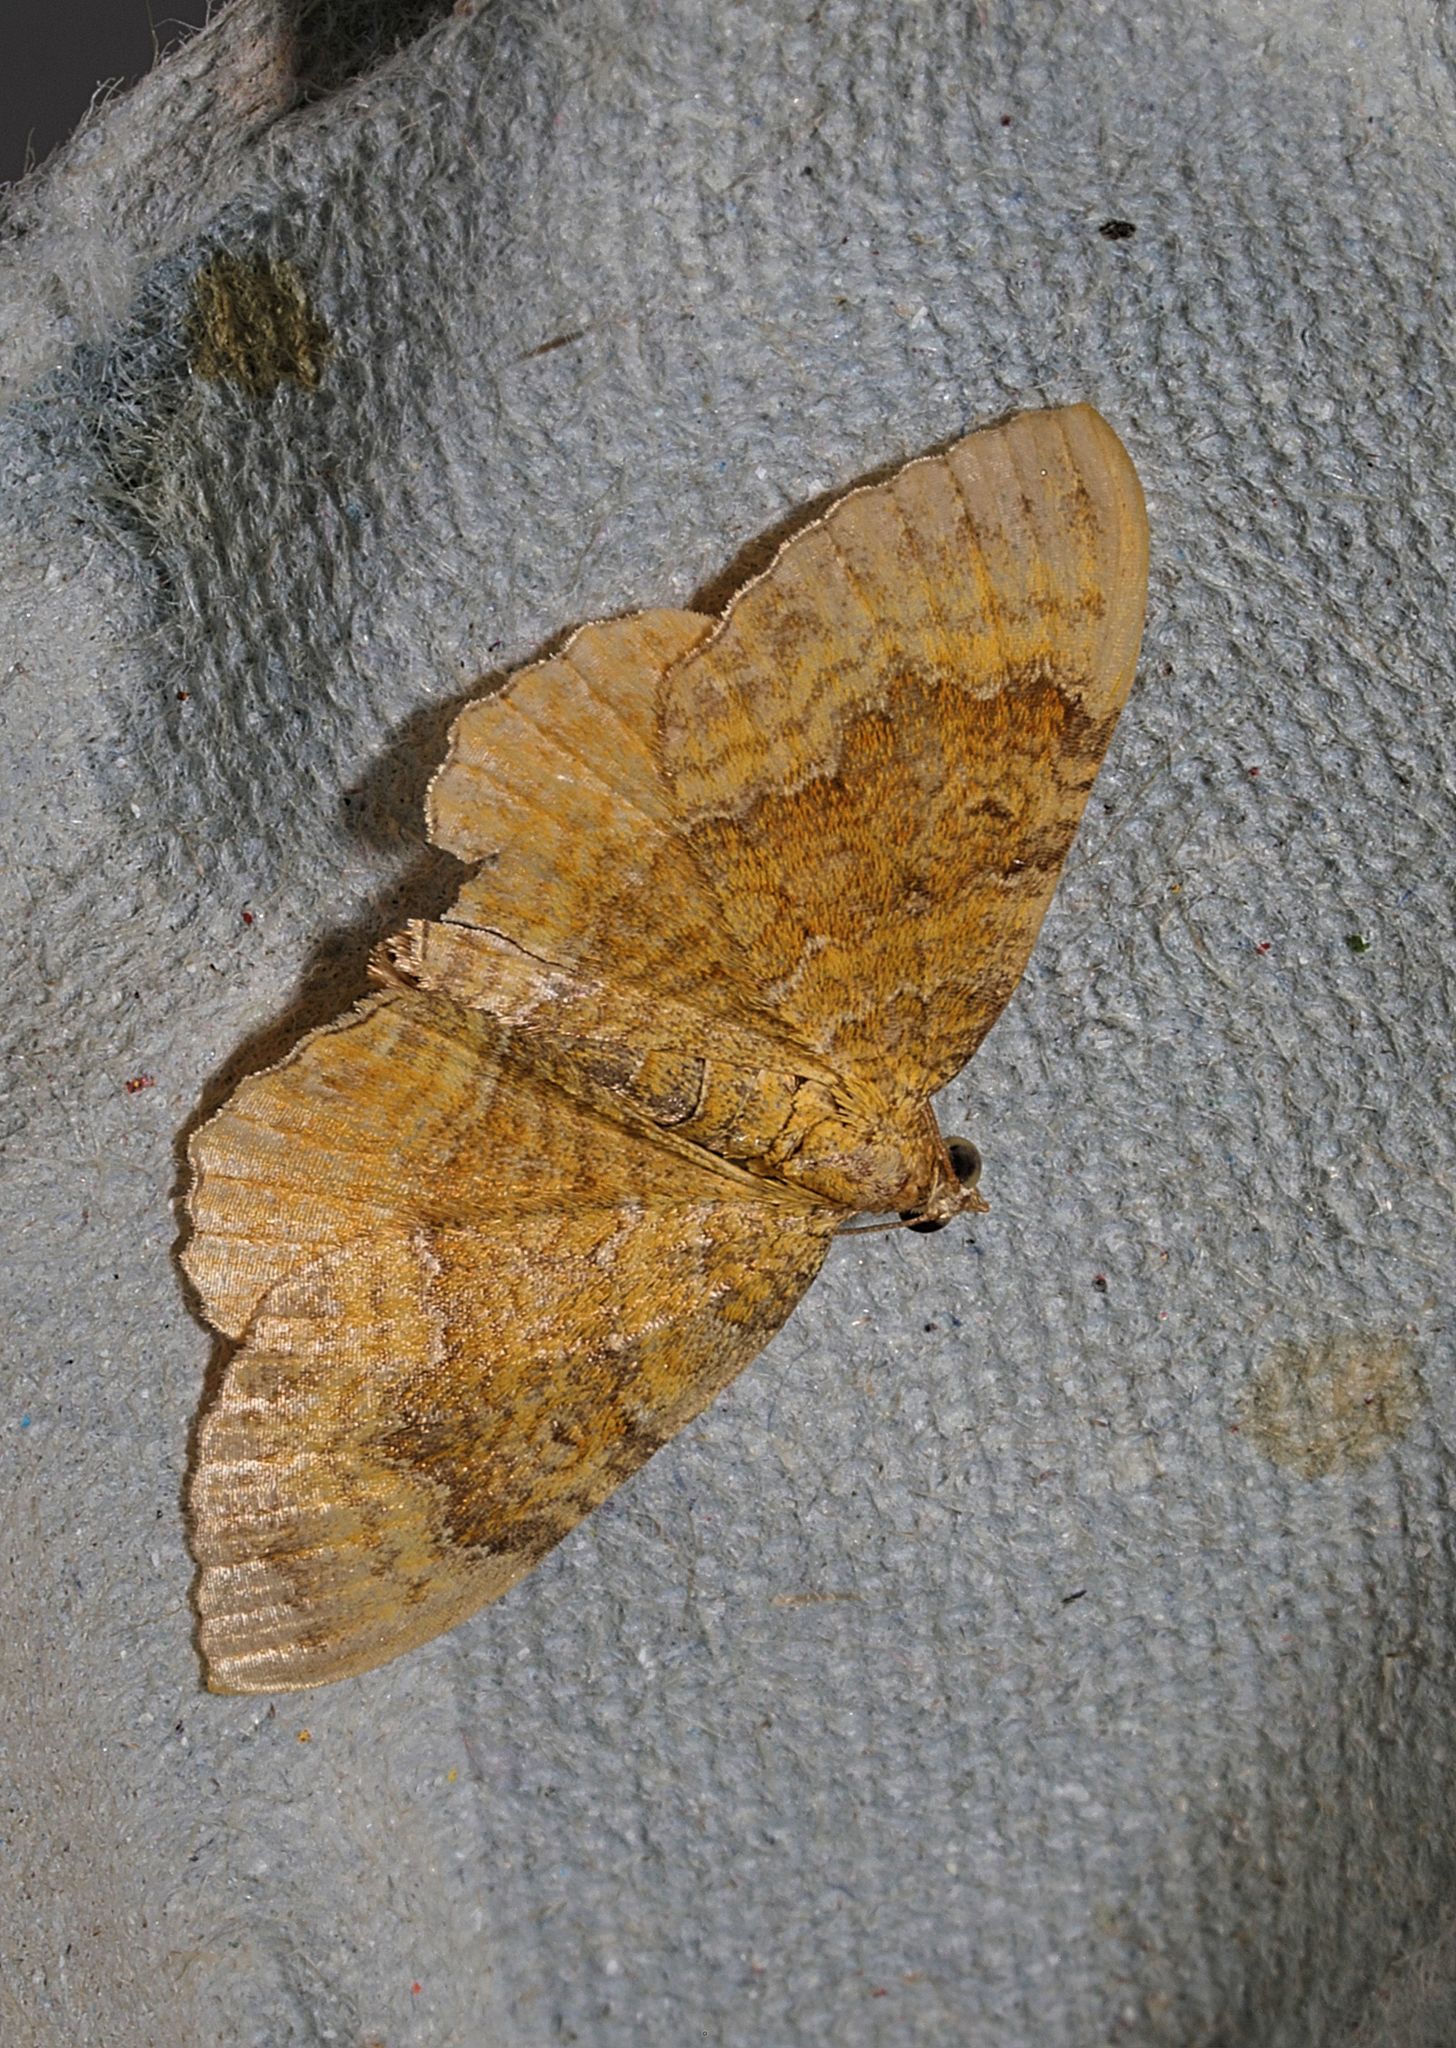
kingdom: Animalia
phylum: Arthropoda
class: Insecta
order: Lepidoptera
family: Geometridae
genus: Camptogramma
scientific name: Camptogramma bilineata
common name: Yellow shell
